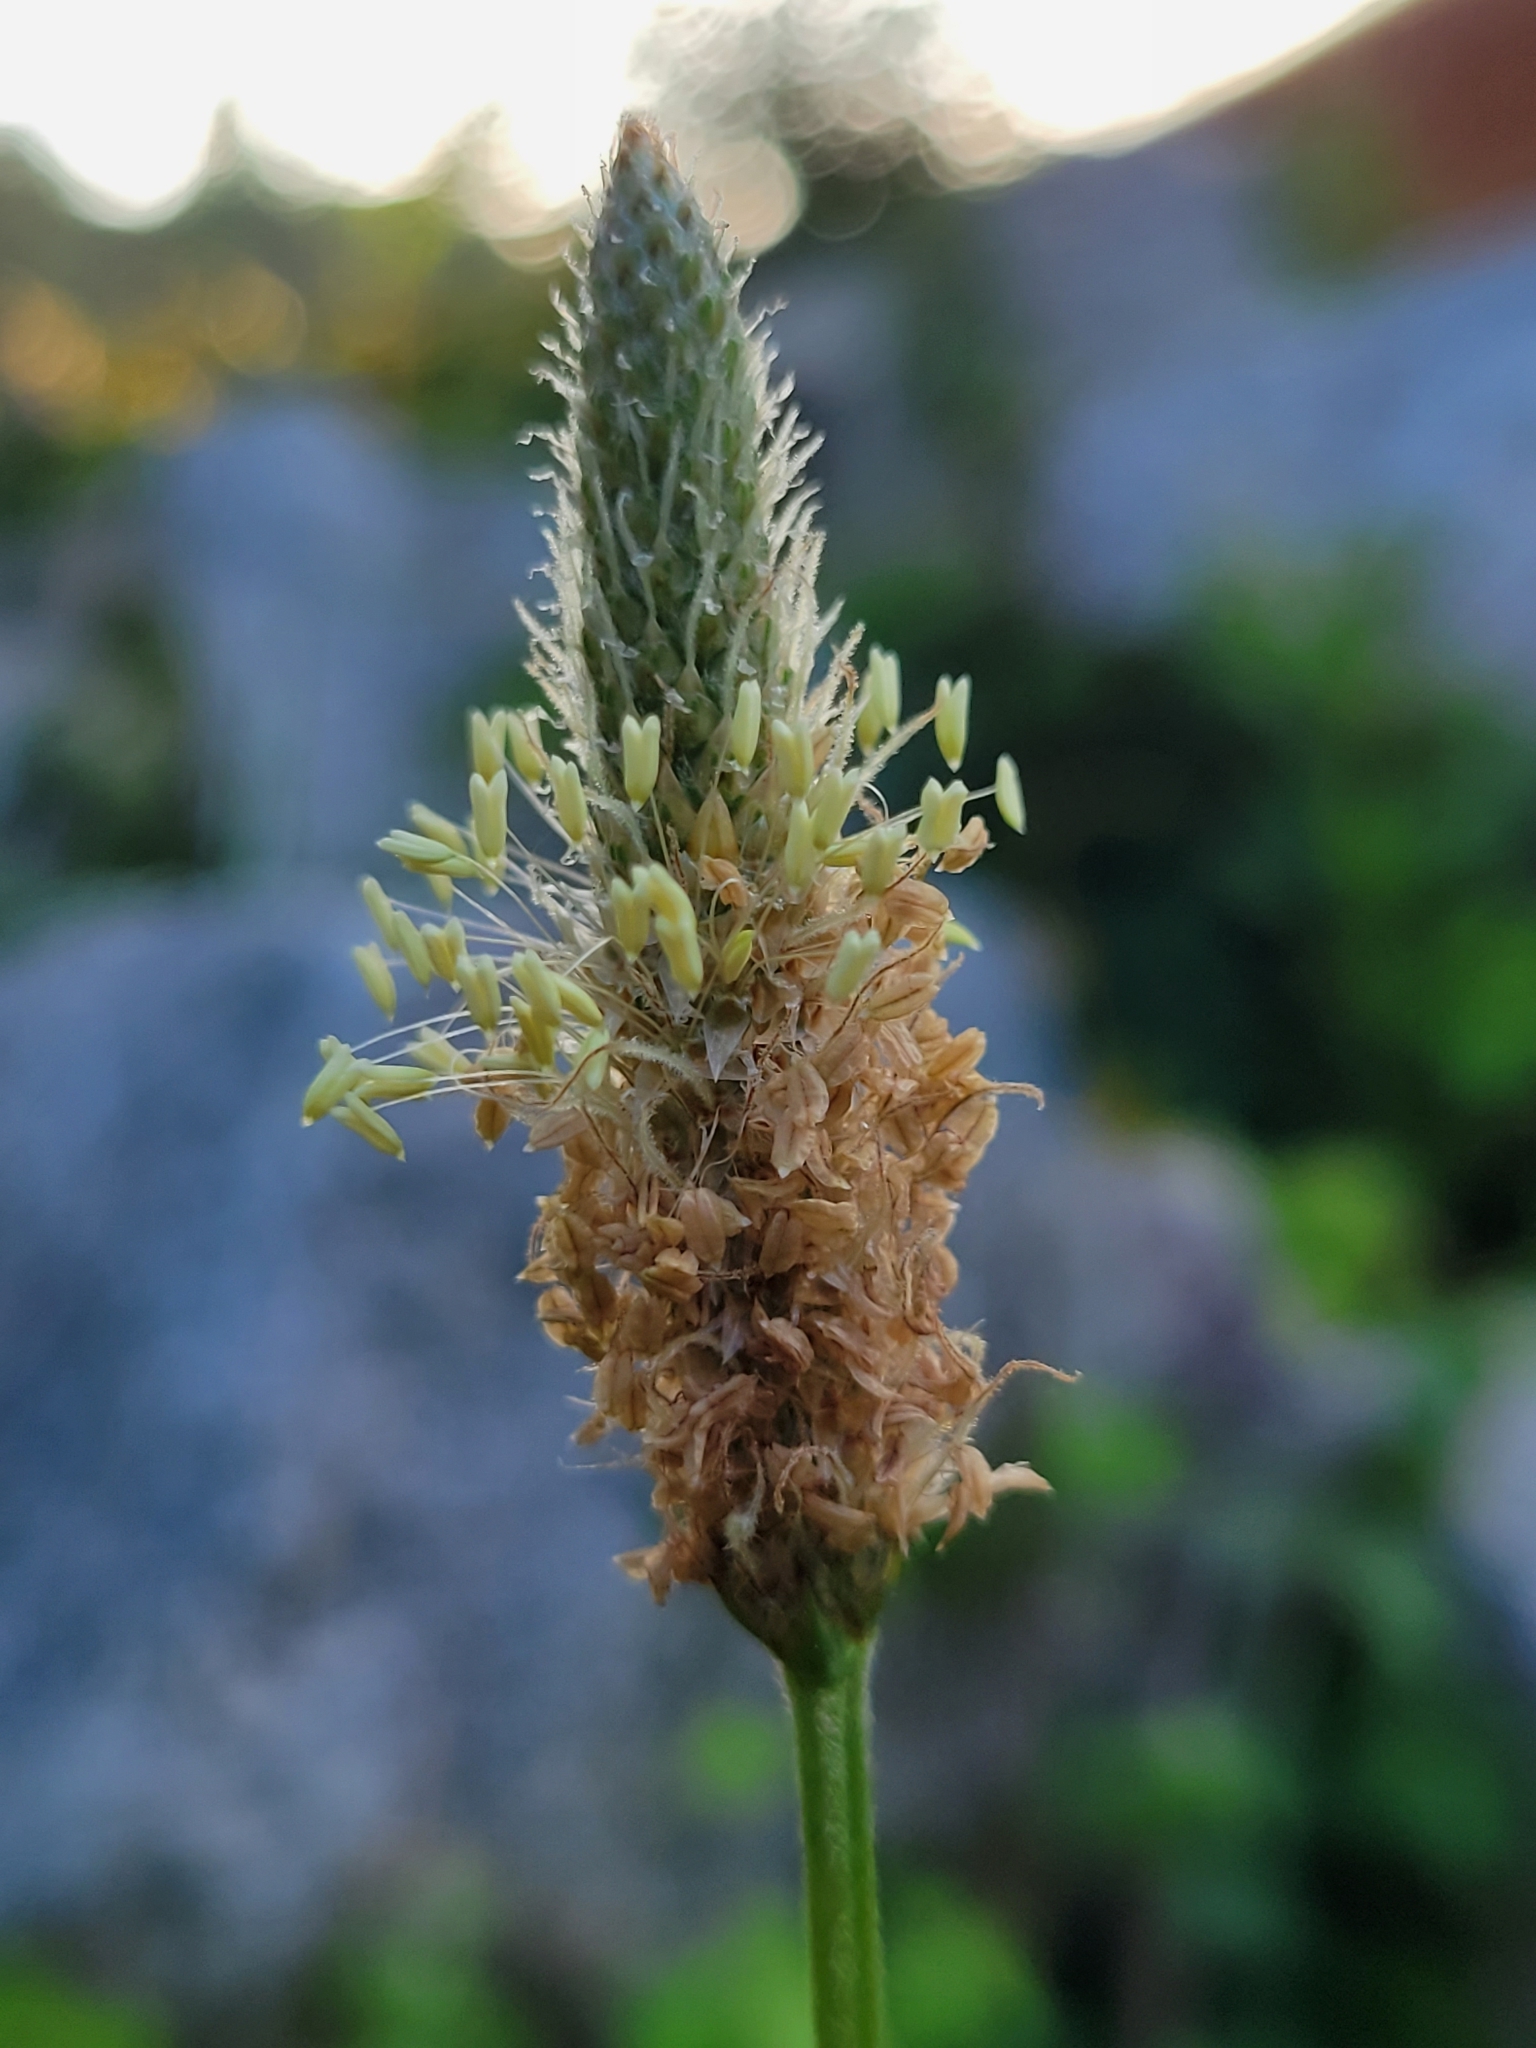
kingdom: Plantae
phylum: Tracheophyta
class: Magnoliopsida
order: Lamiales
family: Plantaginaceae
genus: Plantago
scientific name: Plantago lanceolata
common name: Ribwort plantain
